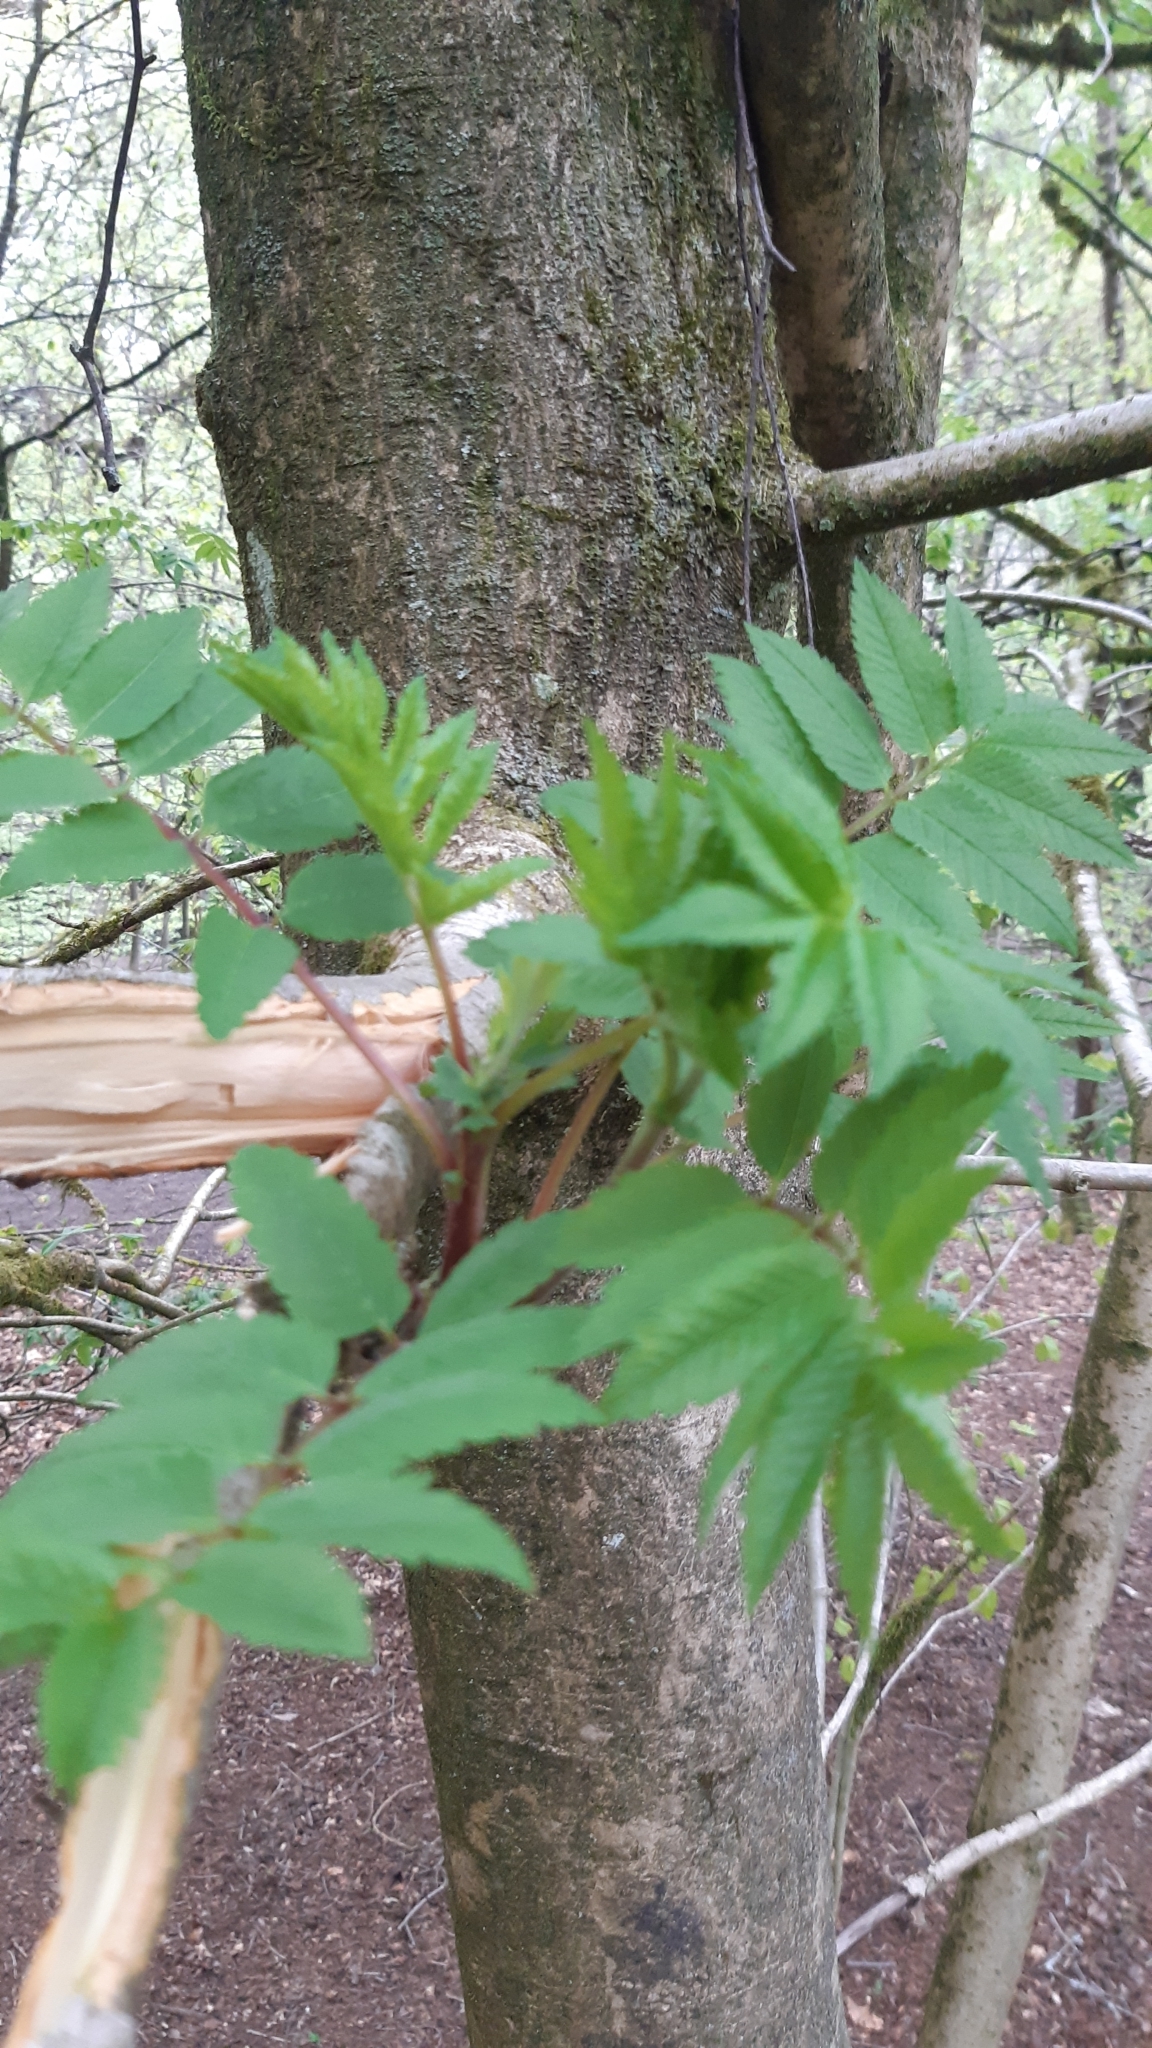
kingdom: Plantae
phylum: Tracheophyta
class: Magnoliopsida
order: Rosales
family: Rosaceae
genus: Sorbus
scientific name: Sorbus aucuparia
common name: Rowan
